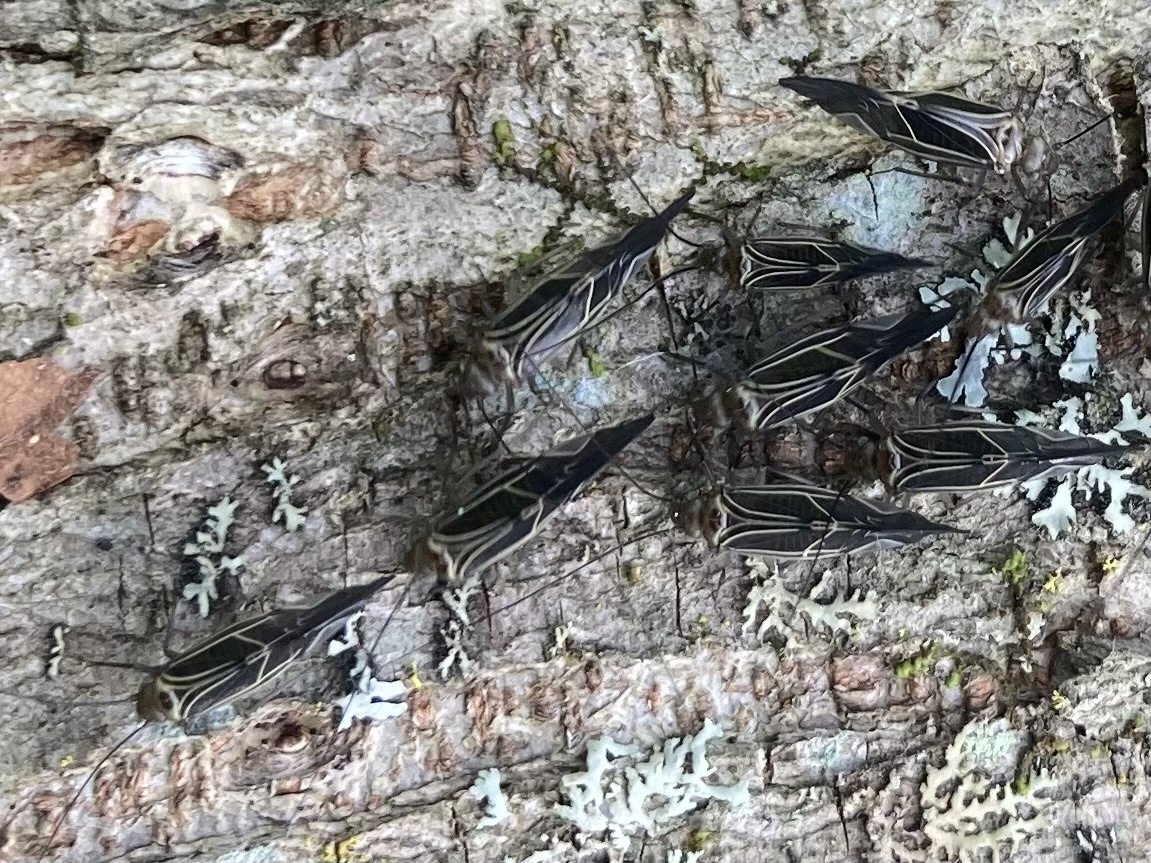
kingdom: Animalia
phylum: Arthropoda
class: Insecta
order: Psocodea
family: Psocidae
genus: Cerastipsocus
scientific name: Cerastipsocus venosus
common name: Tree cattle
